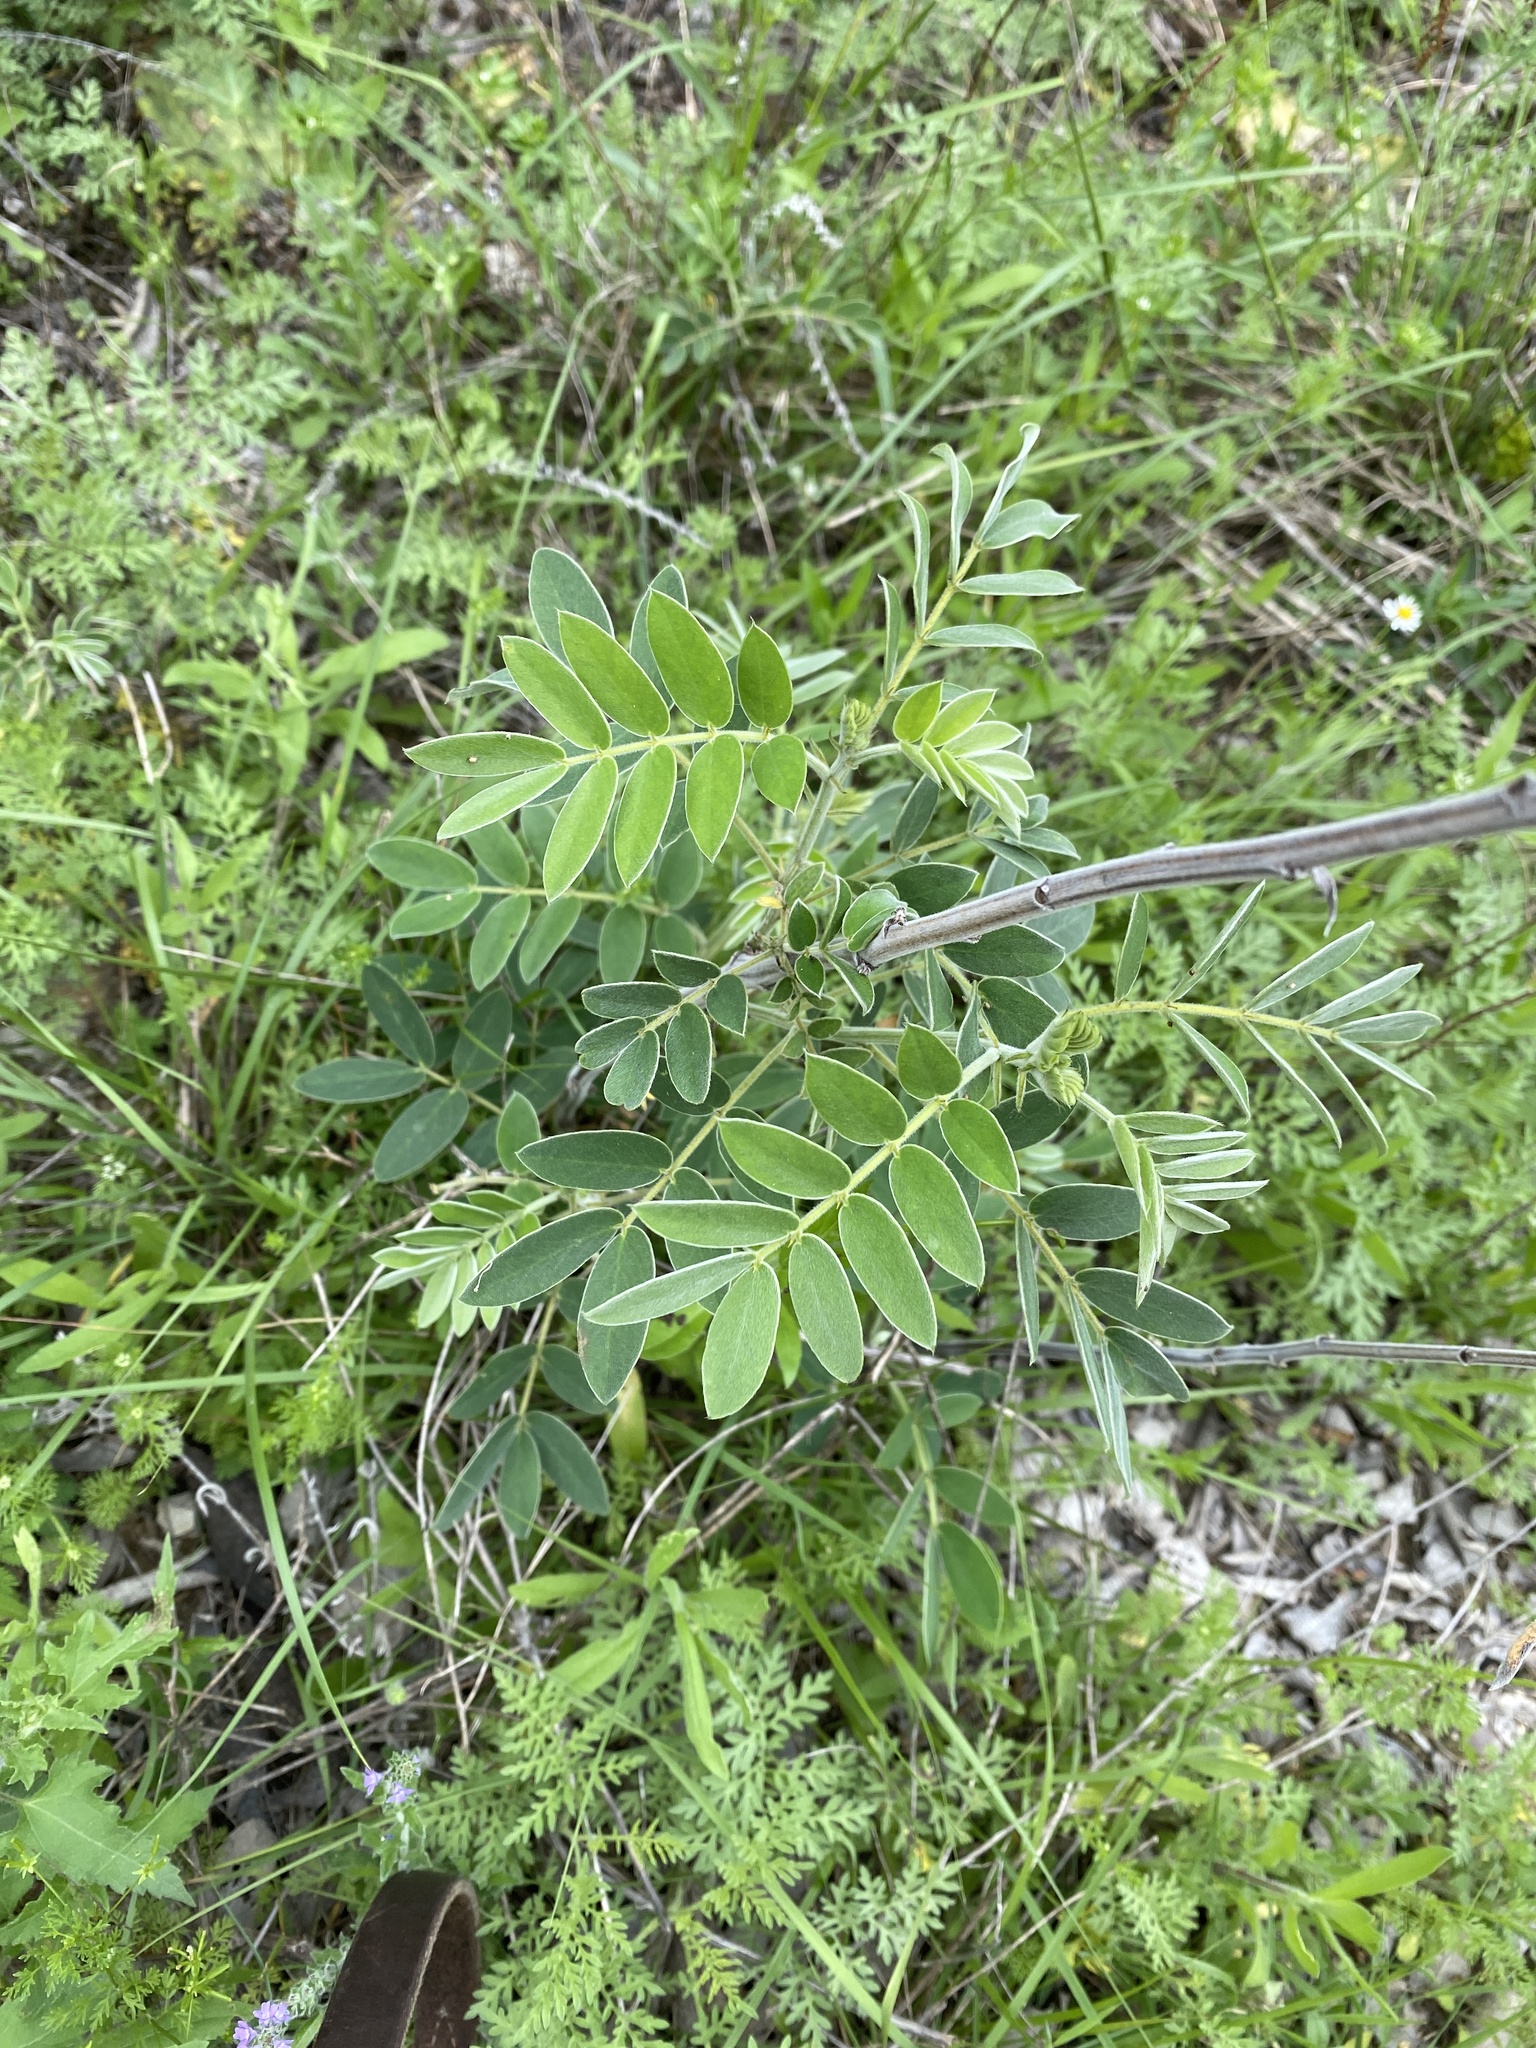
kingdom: Plantae
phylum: Tracheophyta
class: Magnoliopsida
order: Fabales
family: Fabaceae
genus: Senna
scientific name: Senna lindheimeriana
